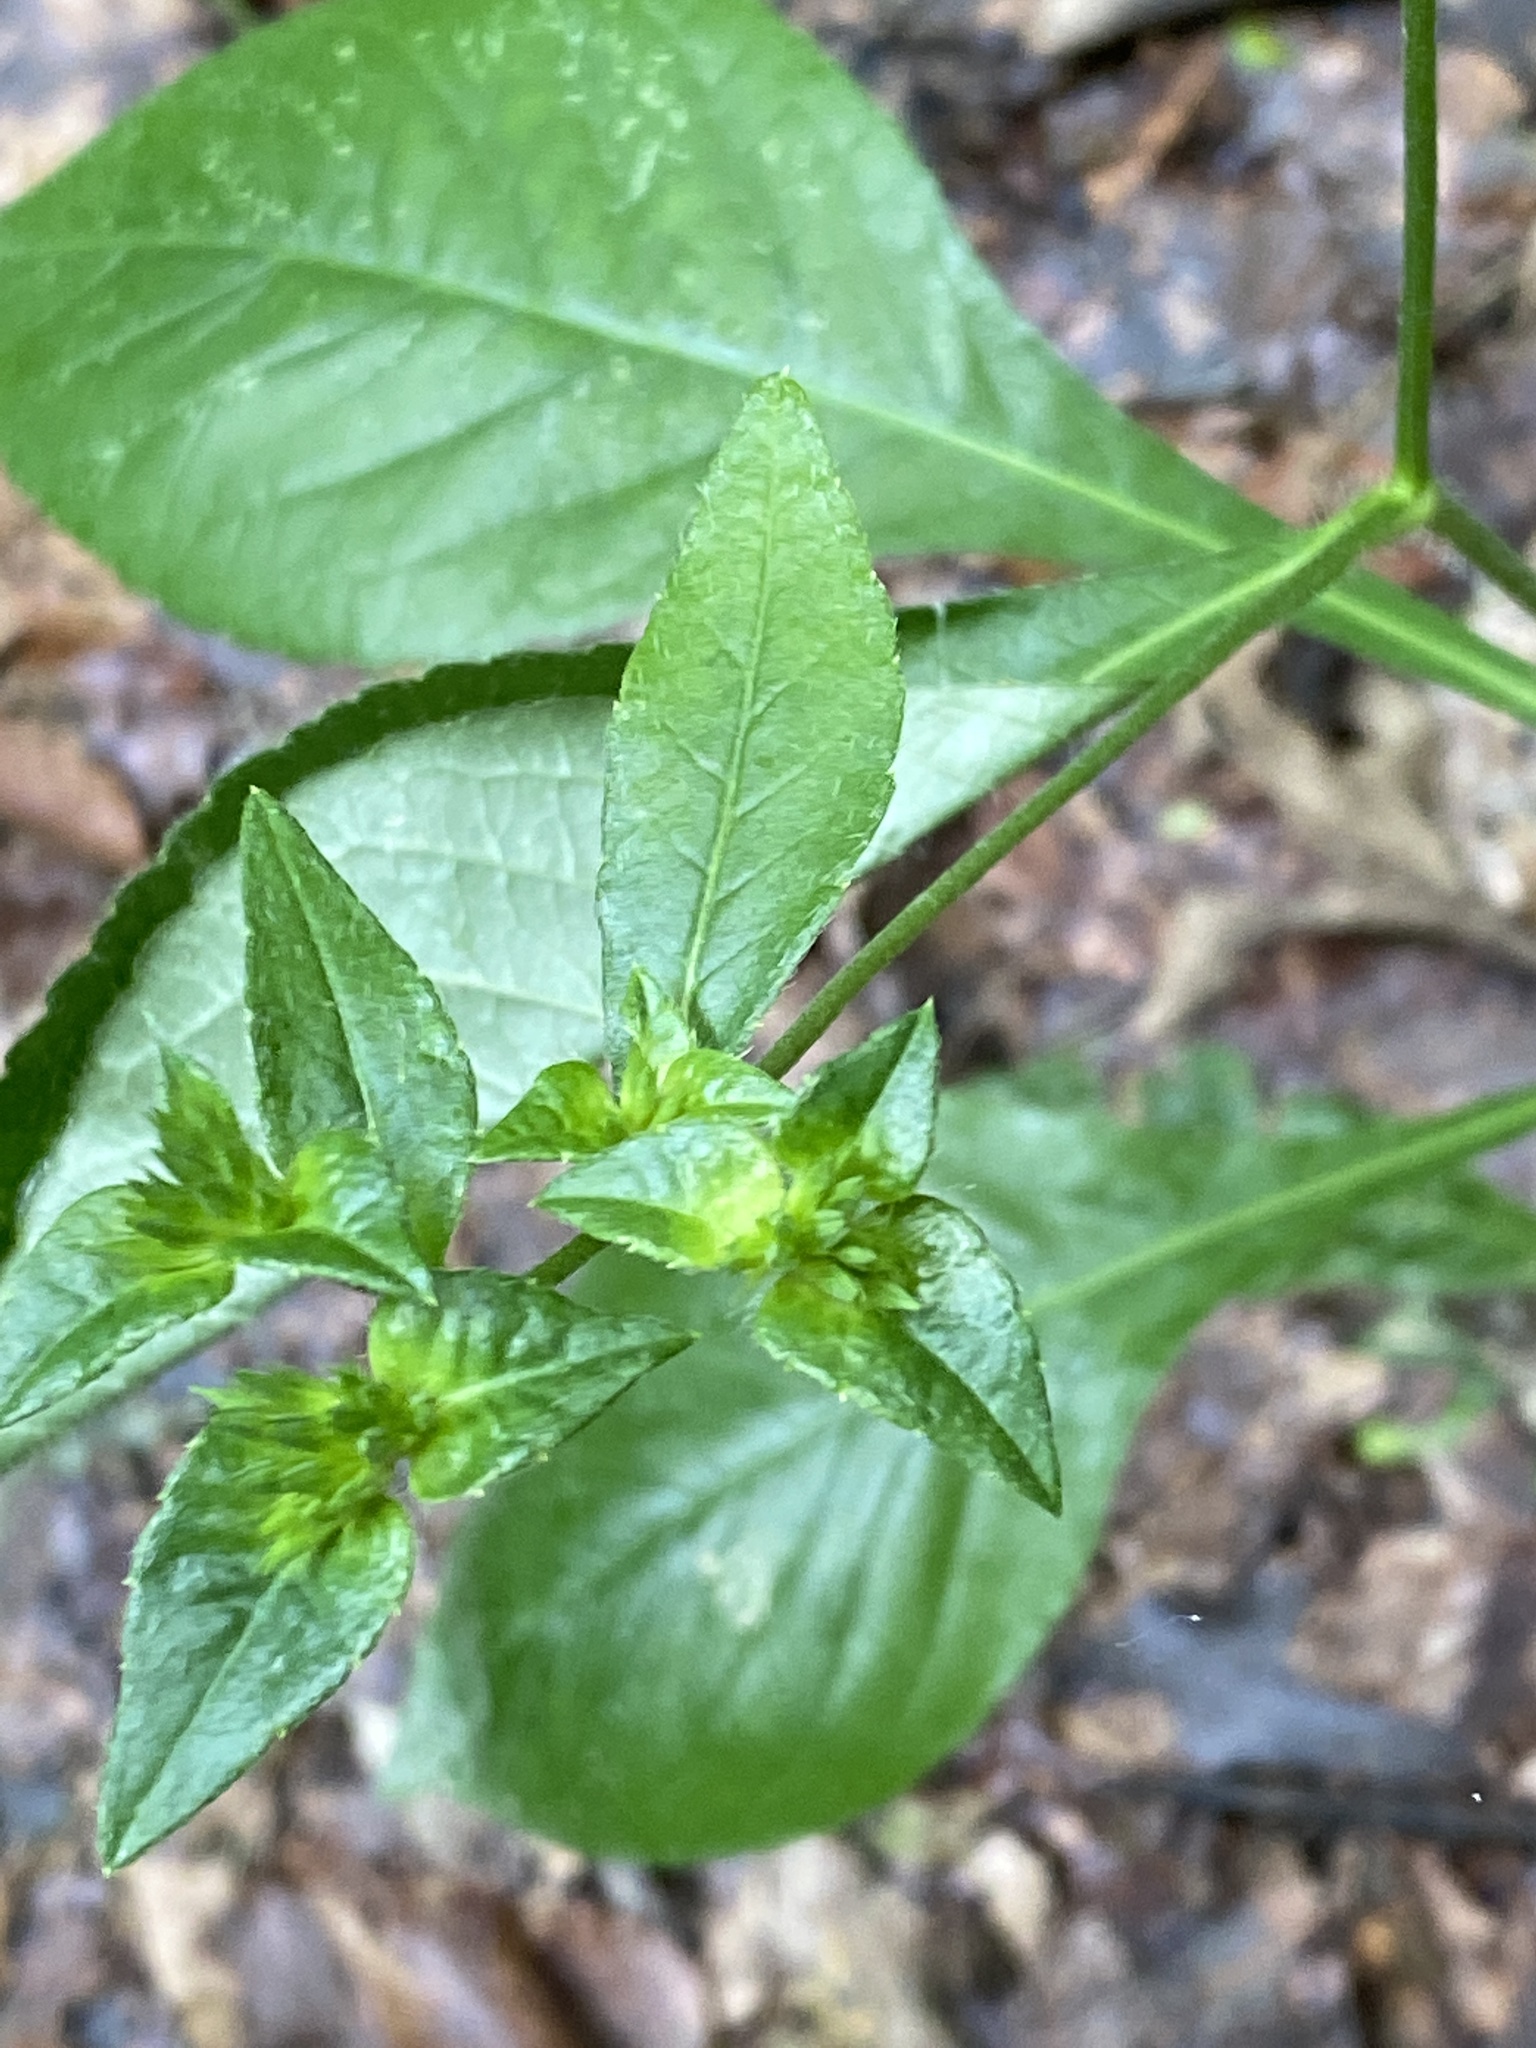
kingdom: Plantae
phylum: Tracheophyta
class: Magnoliopsida
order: Asterales
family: Asteraceae
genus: Elephantopus
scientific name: Elephantopus carolinianus
